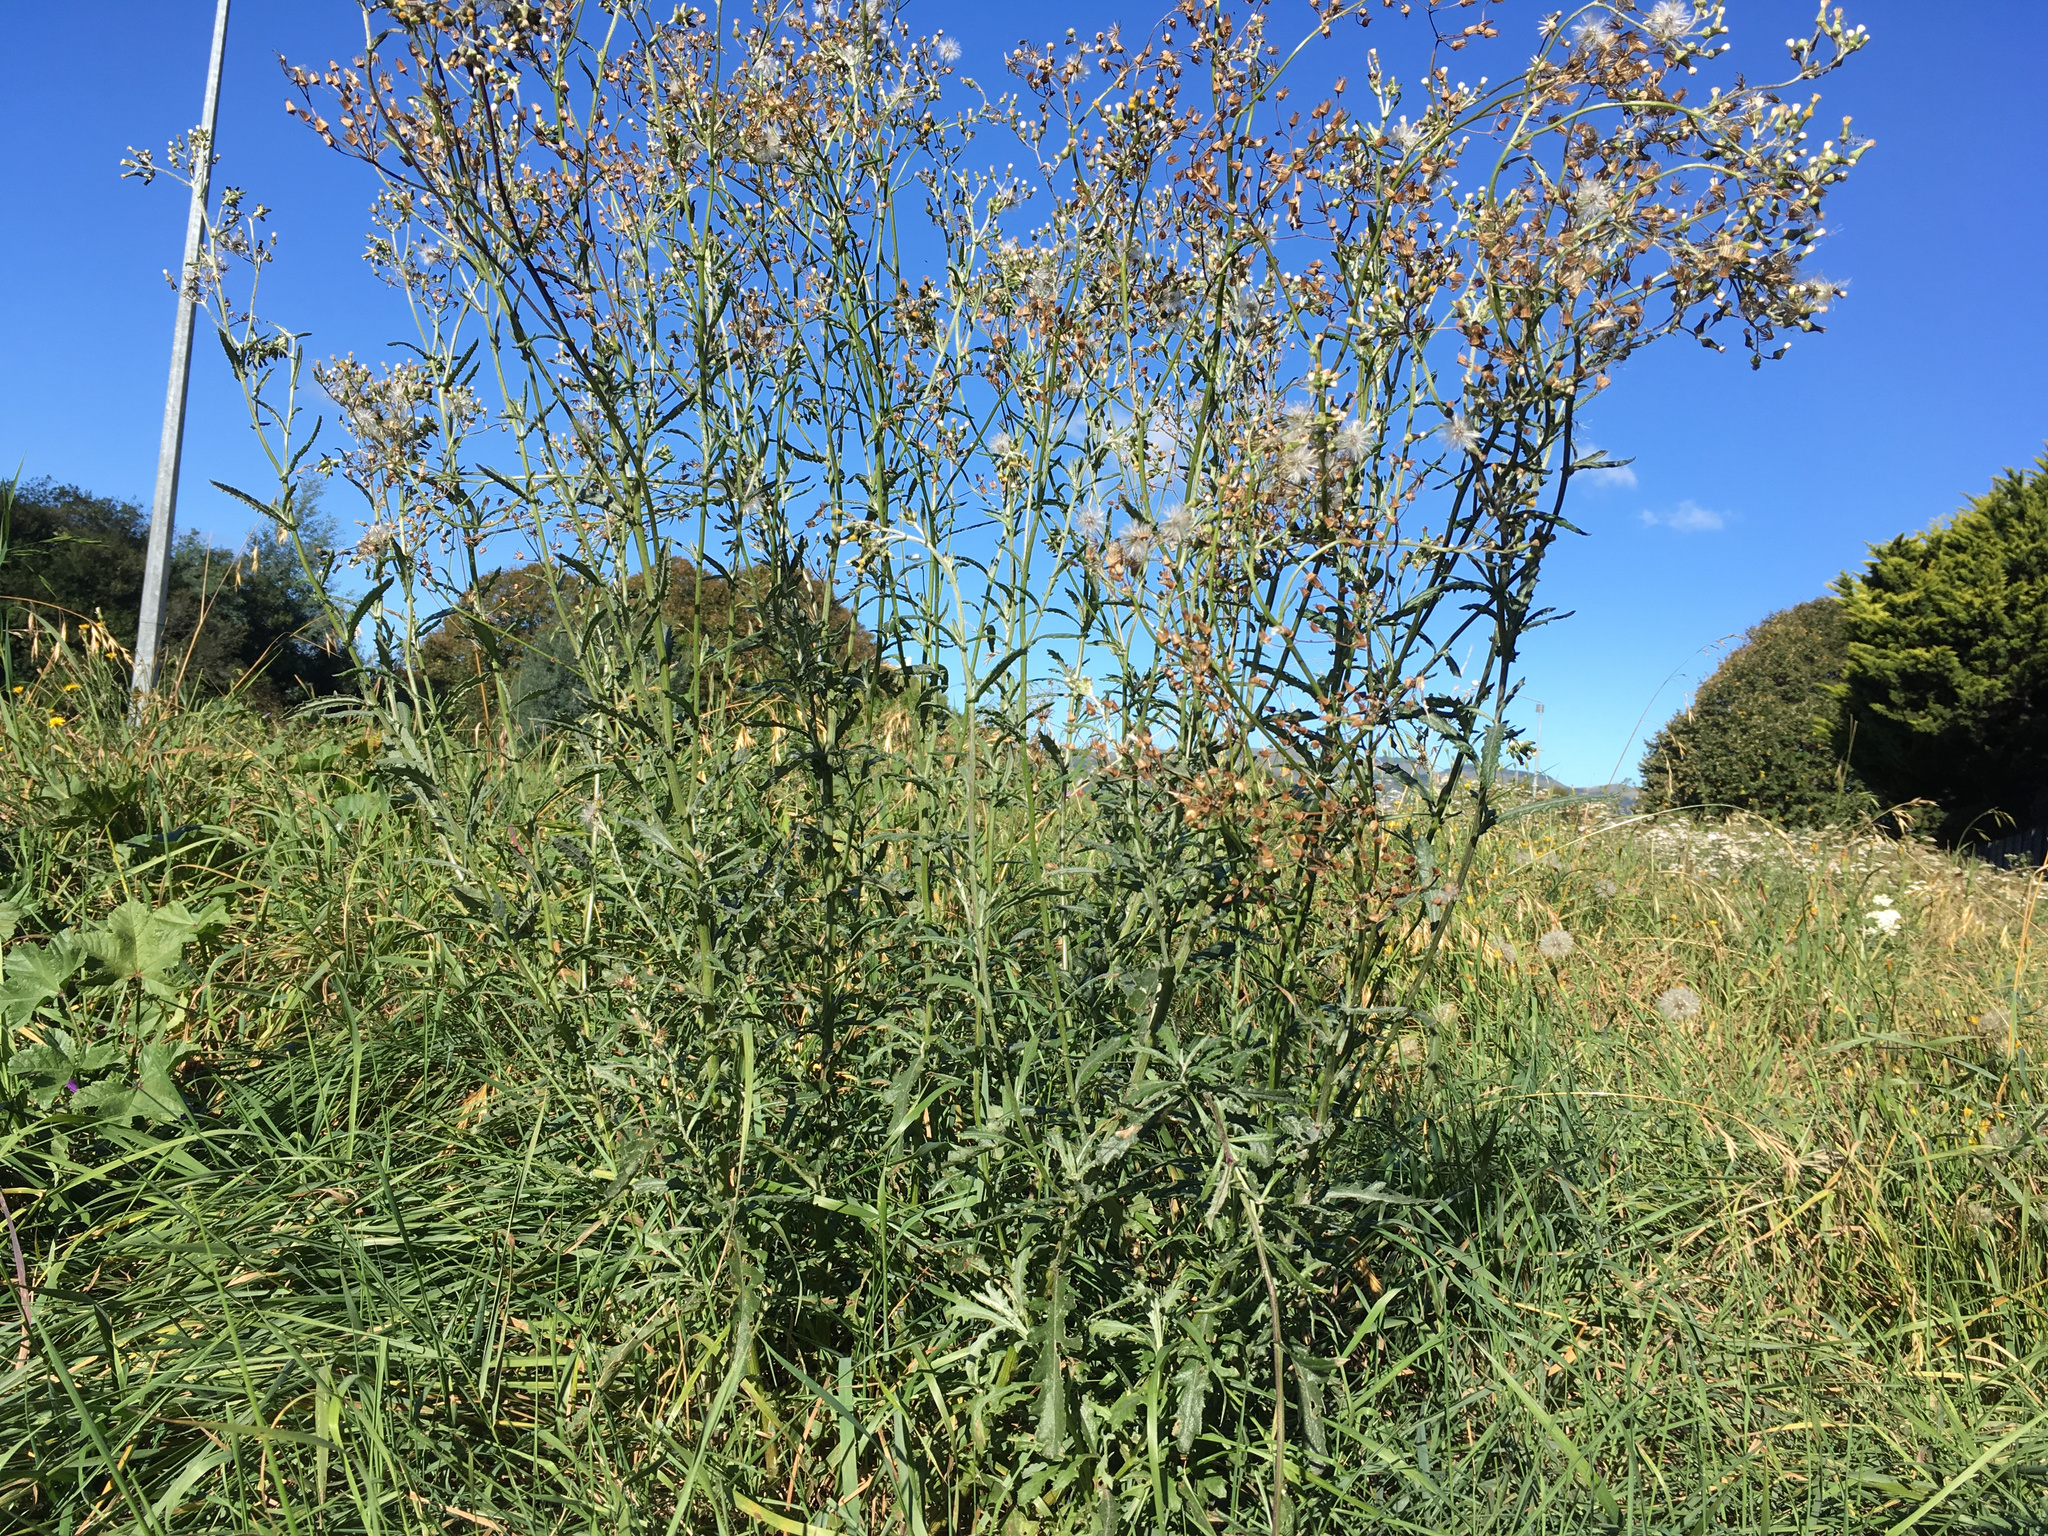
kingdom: Plantae
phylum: Tracheophyta
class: Magnoliopsida
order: Asterales
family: Asteraceae
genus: Senecio
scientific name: Senecio glomeratus
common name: Cutleaf burnweed
